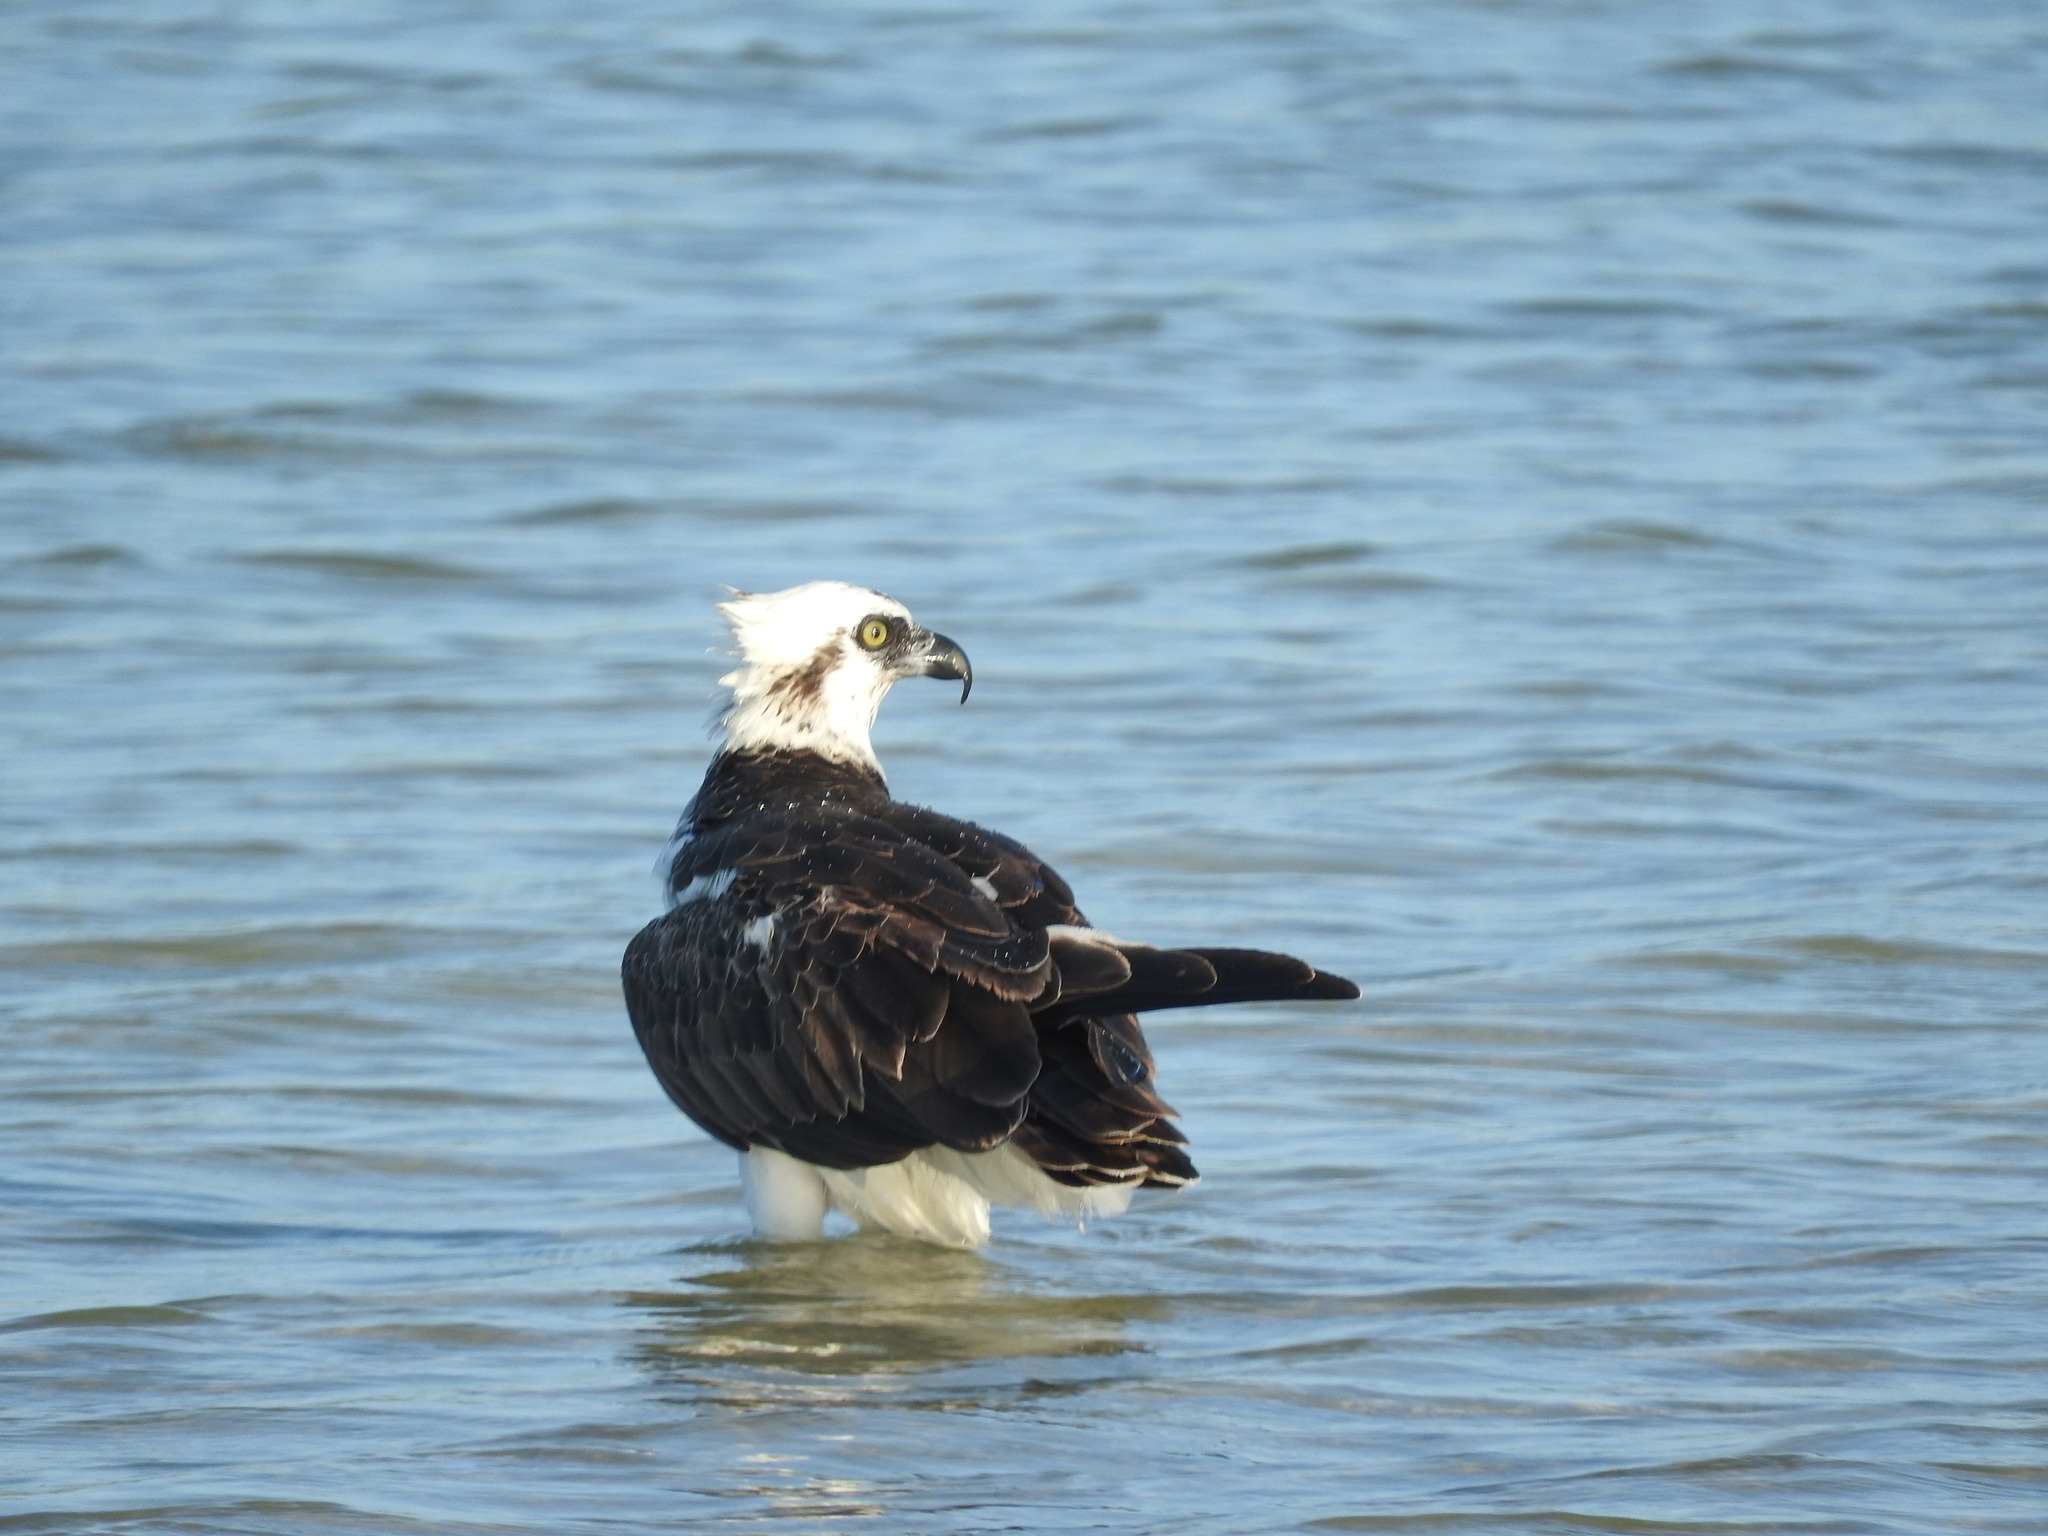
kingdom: Animalia
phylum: Chordata
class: Aves
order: Accipitriformes
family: Pandionidae
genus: Pandion
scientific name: Pandion haliaetus
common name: Osprey
